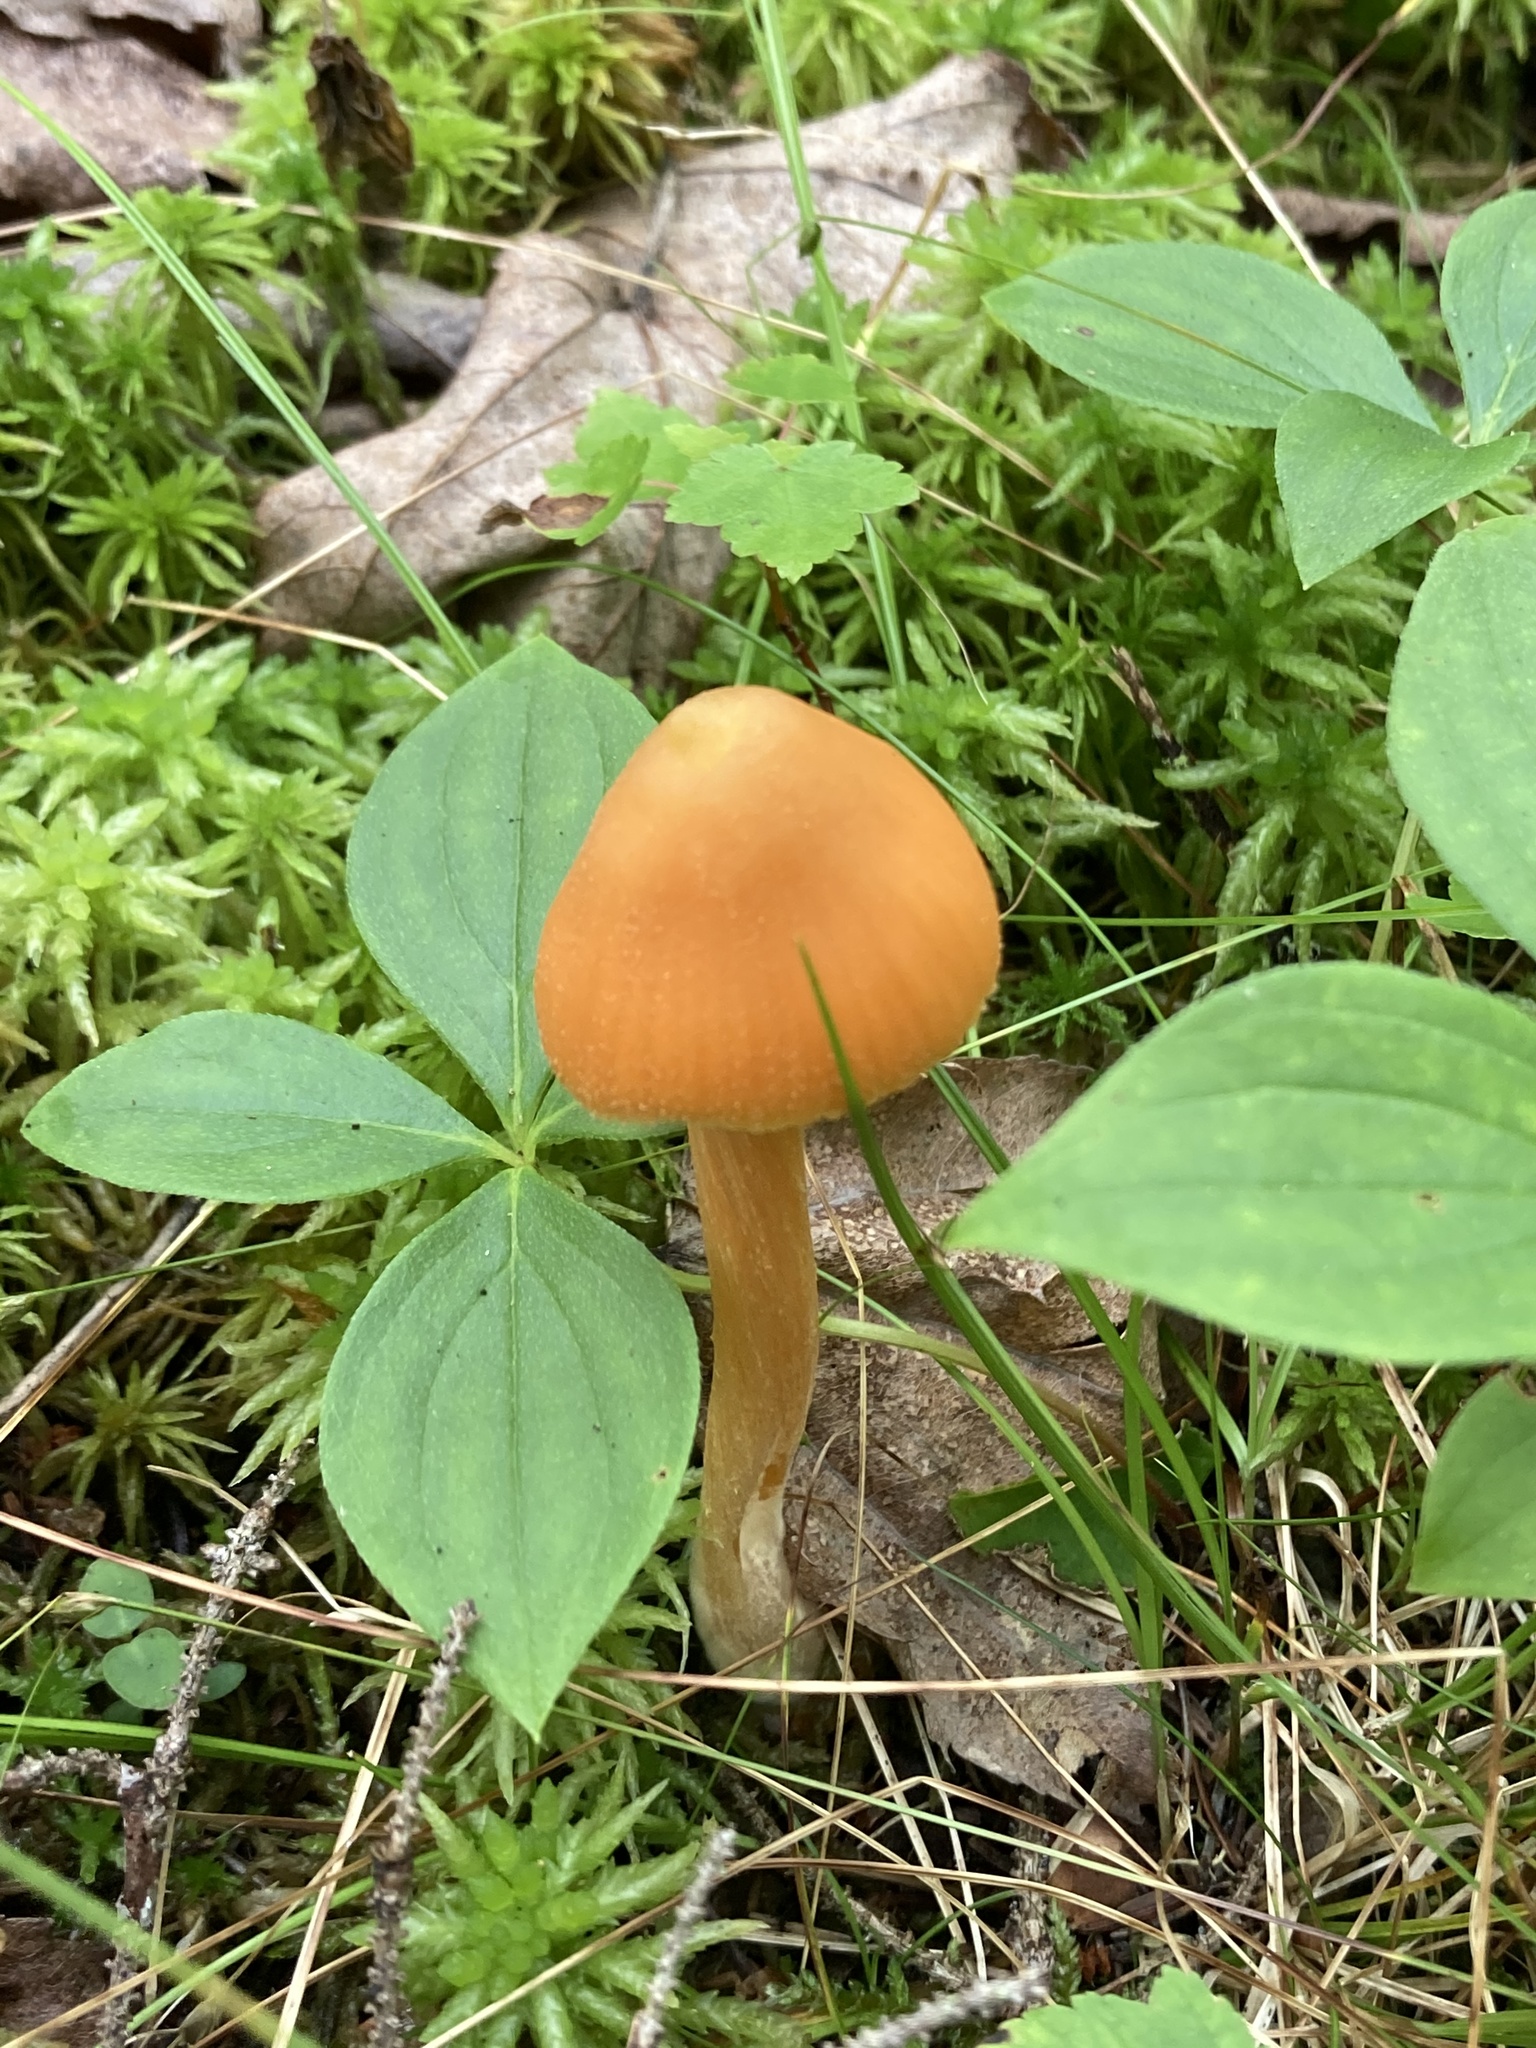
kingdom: Fungi
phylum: Basidiomycota
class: Agaricomycetes
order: Agaricales
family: Entolomataceae
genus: Entoloma
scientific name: Entoloma quadratum
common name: Salmon pinkgill
